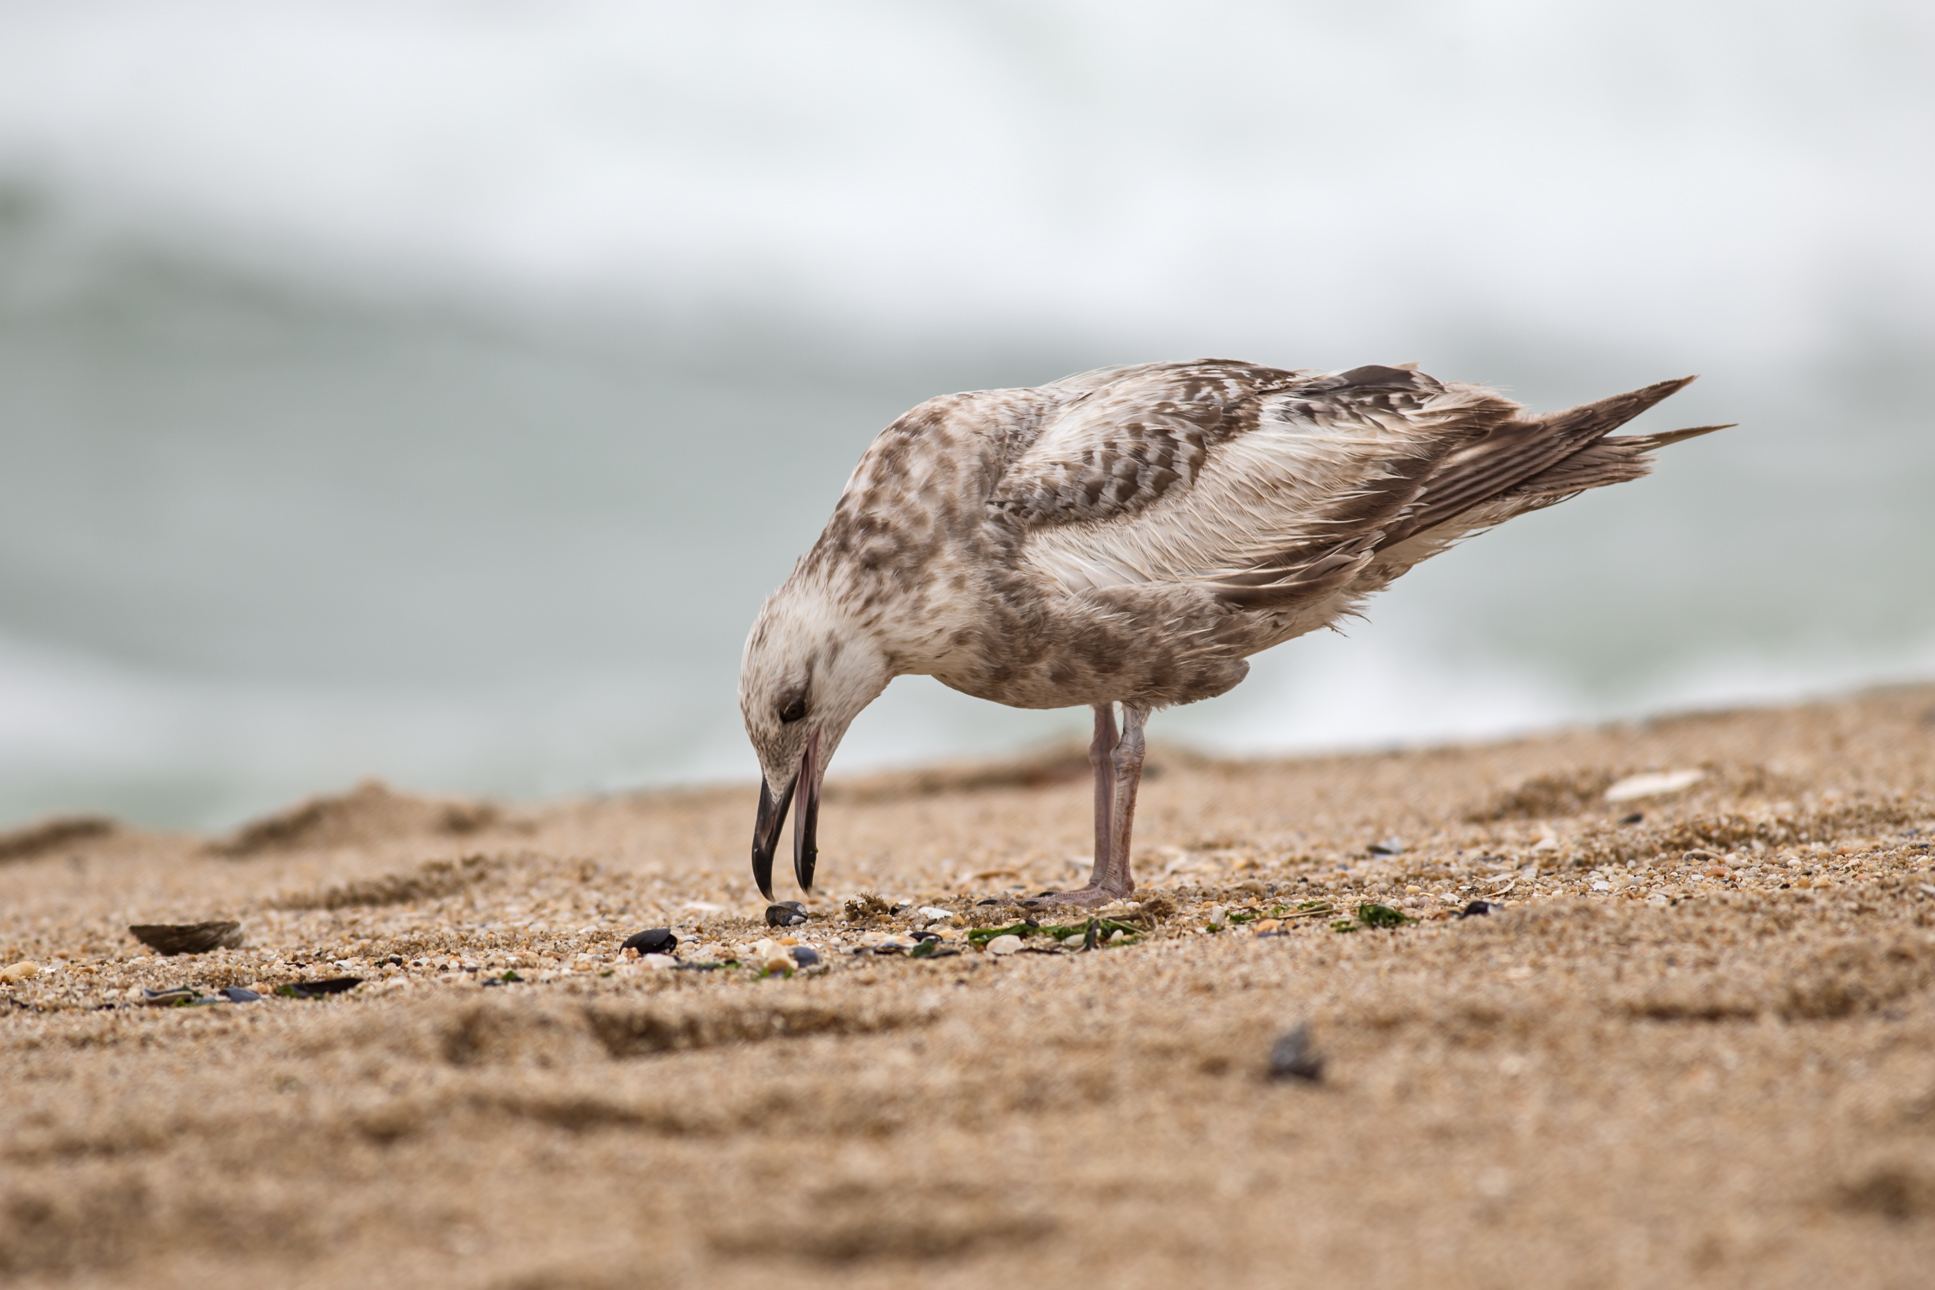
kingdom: Animalia
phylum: Chordata
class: Aves
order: Charadriiformes
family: Laridae
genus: Larus
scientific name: Larus argentatus
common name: Herring gull
